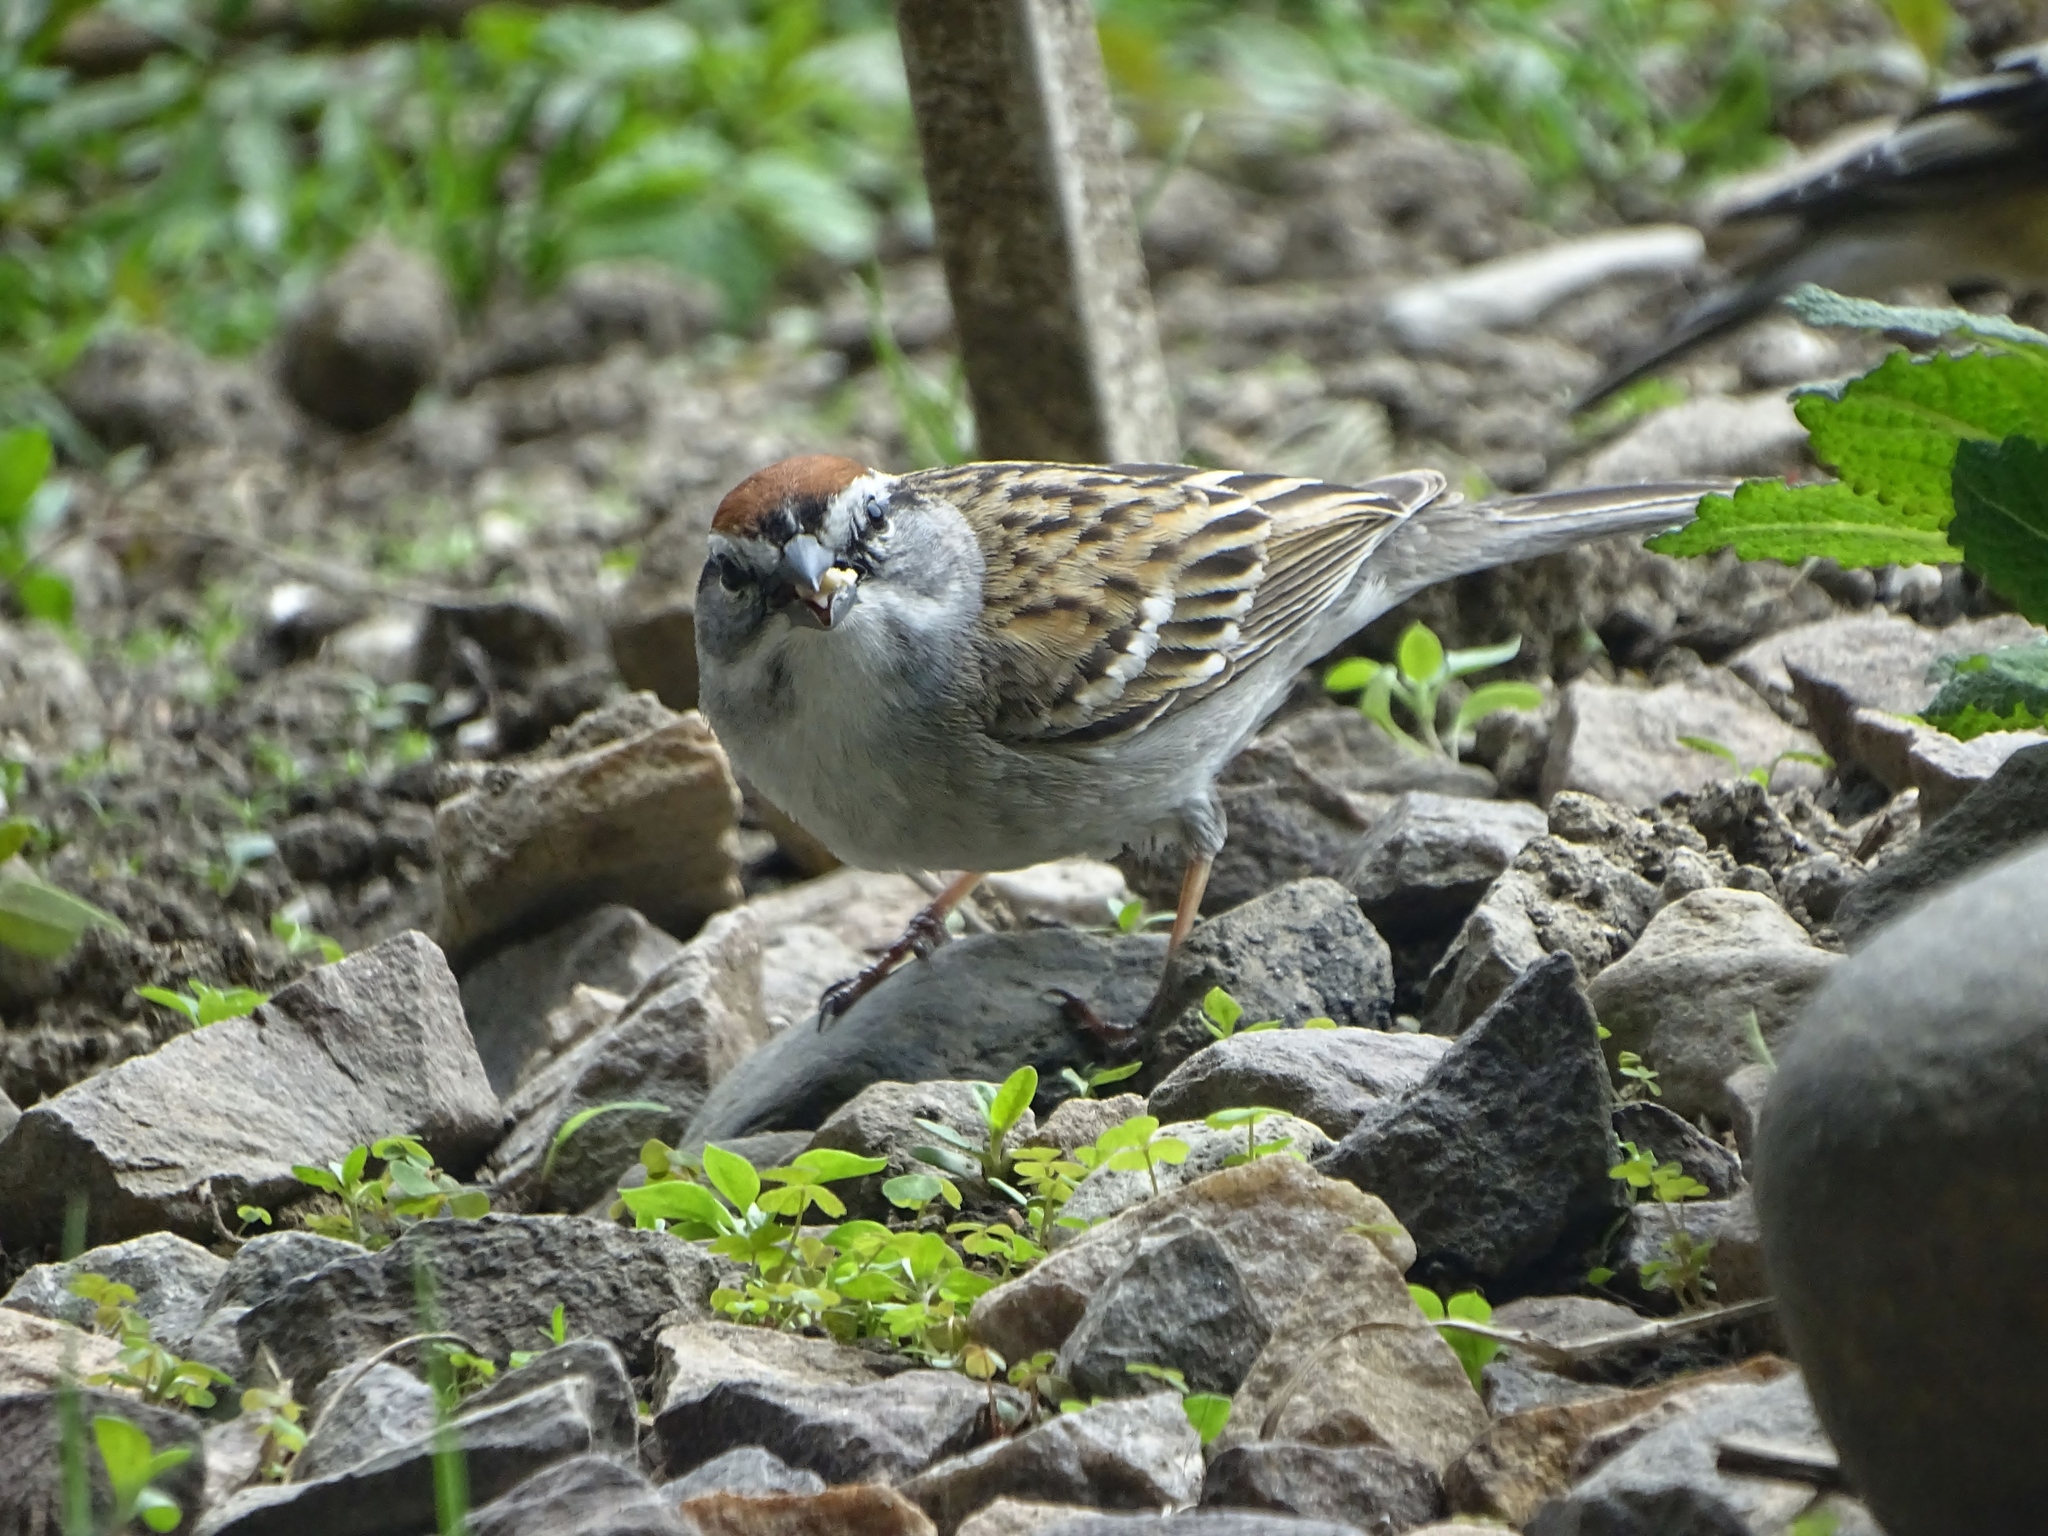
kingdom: Animalia
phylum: Chordata
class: Aves
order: Passeriformes
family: Passerellidae
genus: Spizella
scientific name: Spizella passerina
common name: Chipping sparrow
